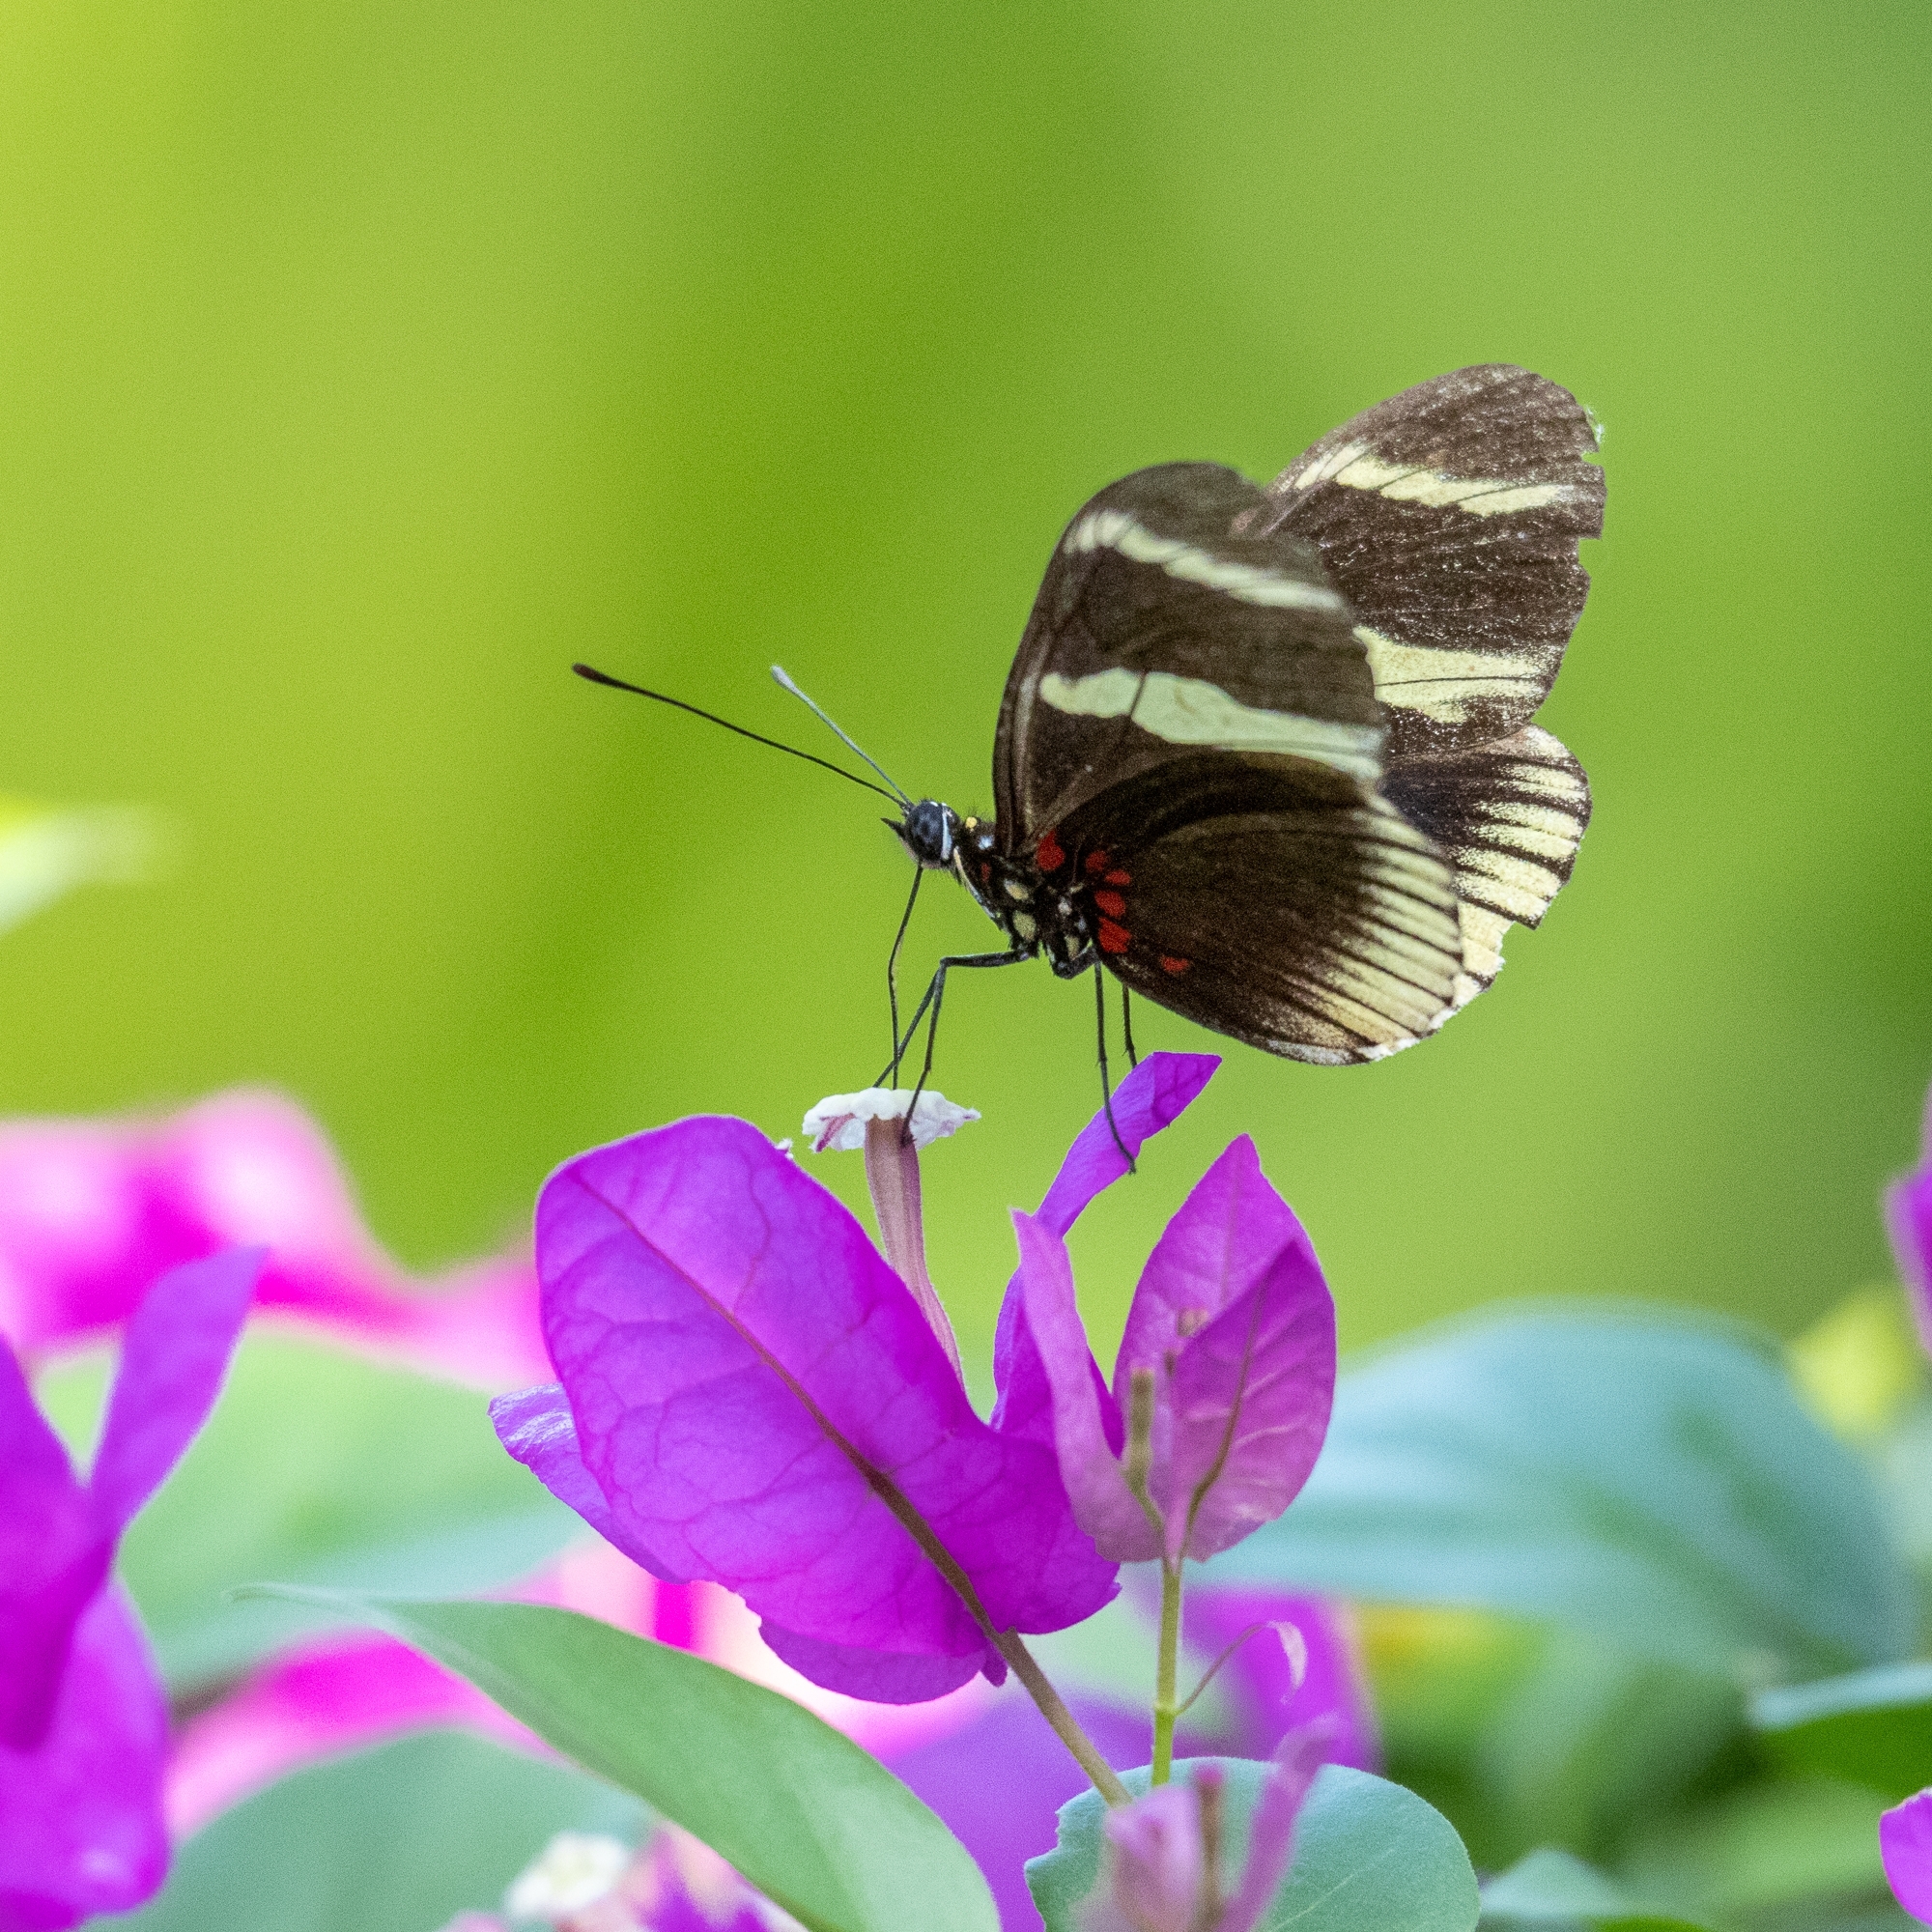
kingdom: Animalia
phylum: Arthropoda
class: Insecta
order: Lepidoptera
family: Nymphalidae
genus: Heliconius
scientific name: Heliconius sara
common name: Sara longwing
